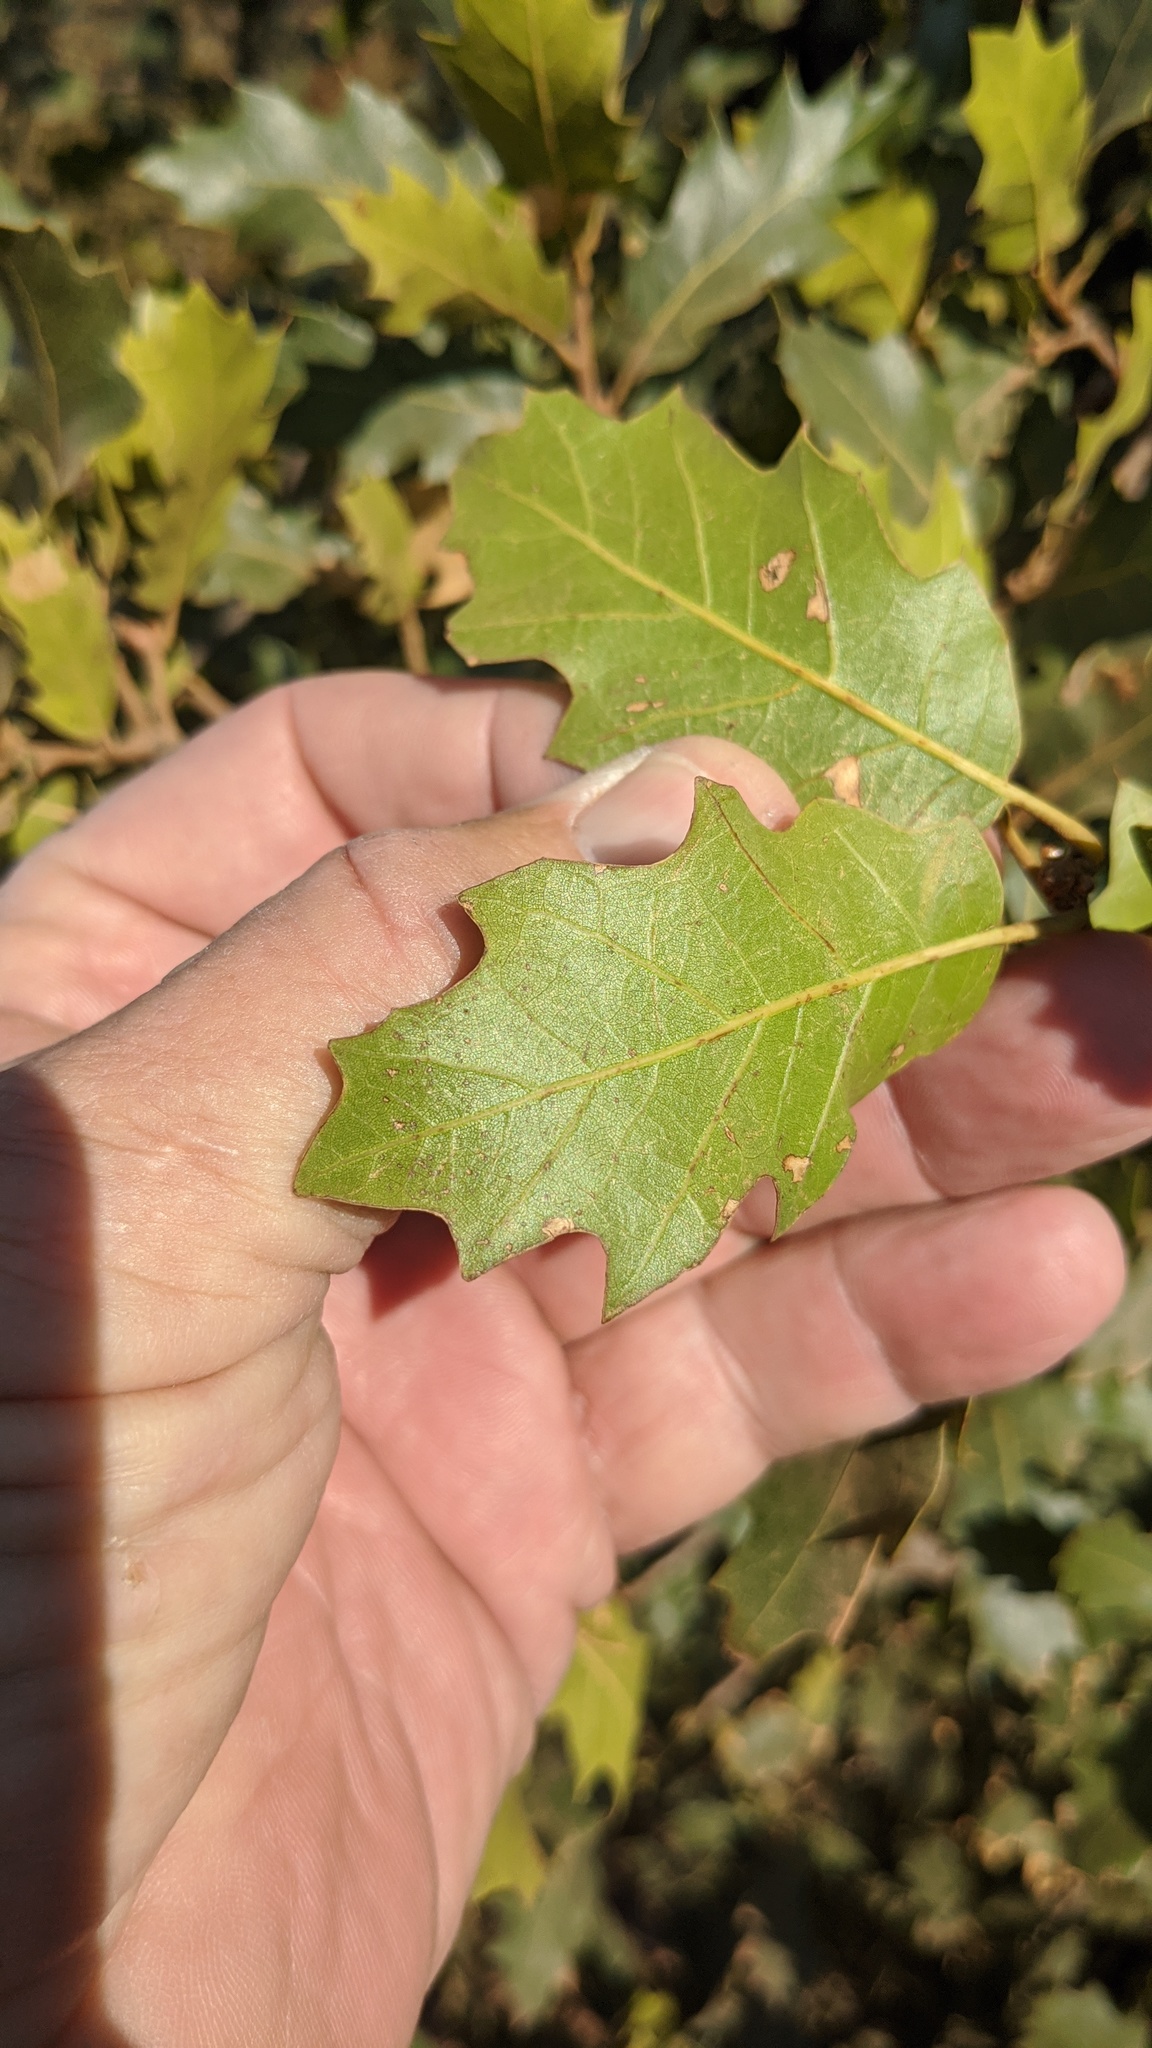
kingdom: Plantae
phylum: Tracheophyta
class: Magnoliopsida
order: Fagales
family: Fagaceae
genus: Quercus
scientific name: Quercus morehus
